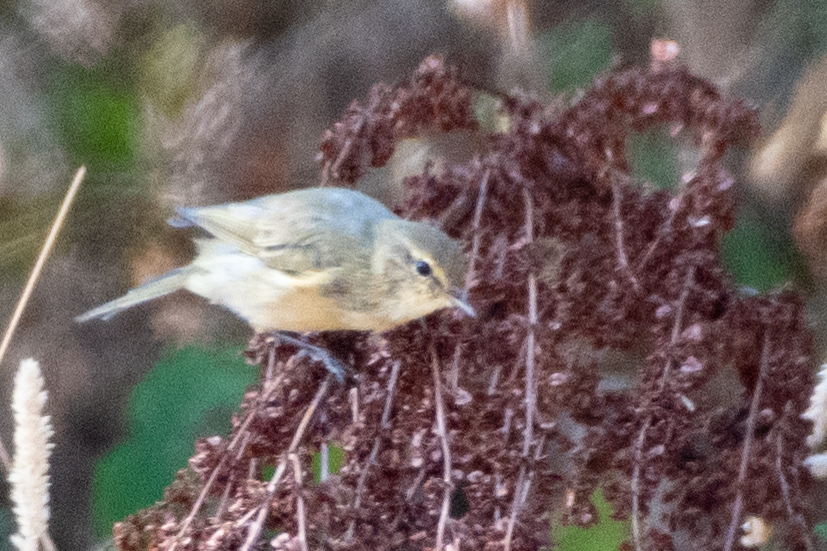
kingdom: Animalia
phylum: Chordata
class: Aves
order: Passeriformes
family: Phylloscopidae
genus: Phylloscopus
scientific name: Phylloscopus collybita
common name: Common chiffchaff
